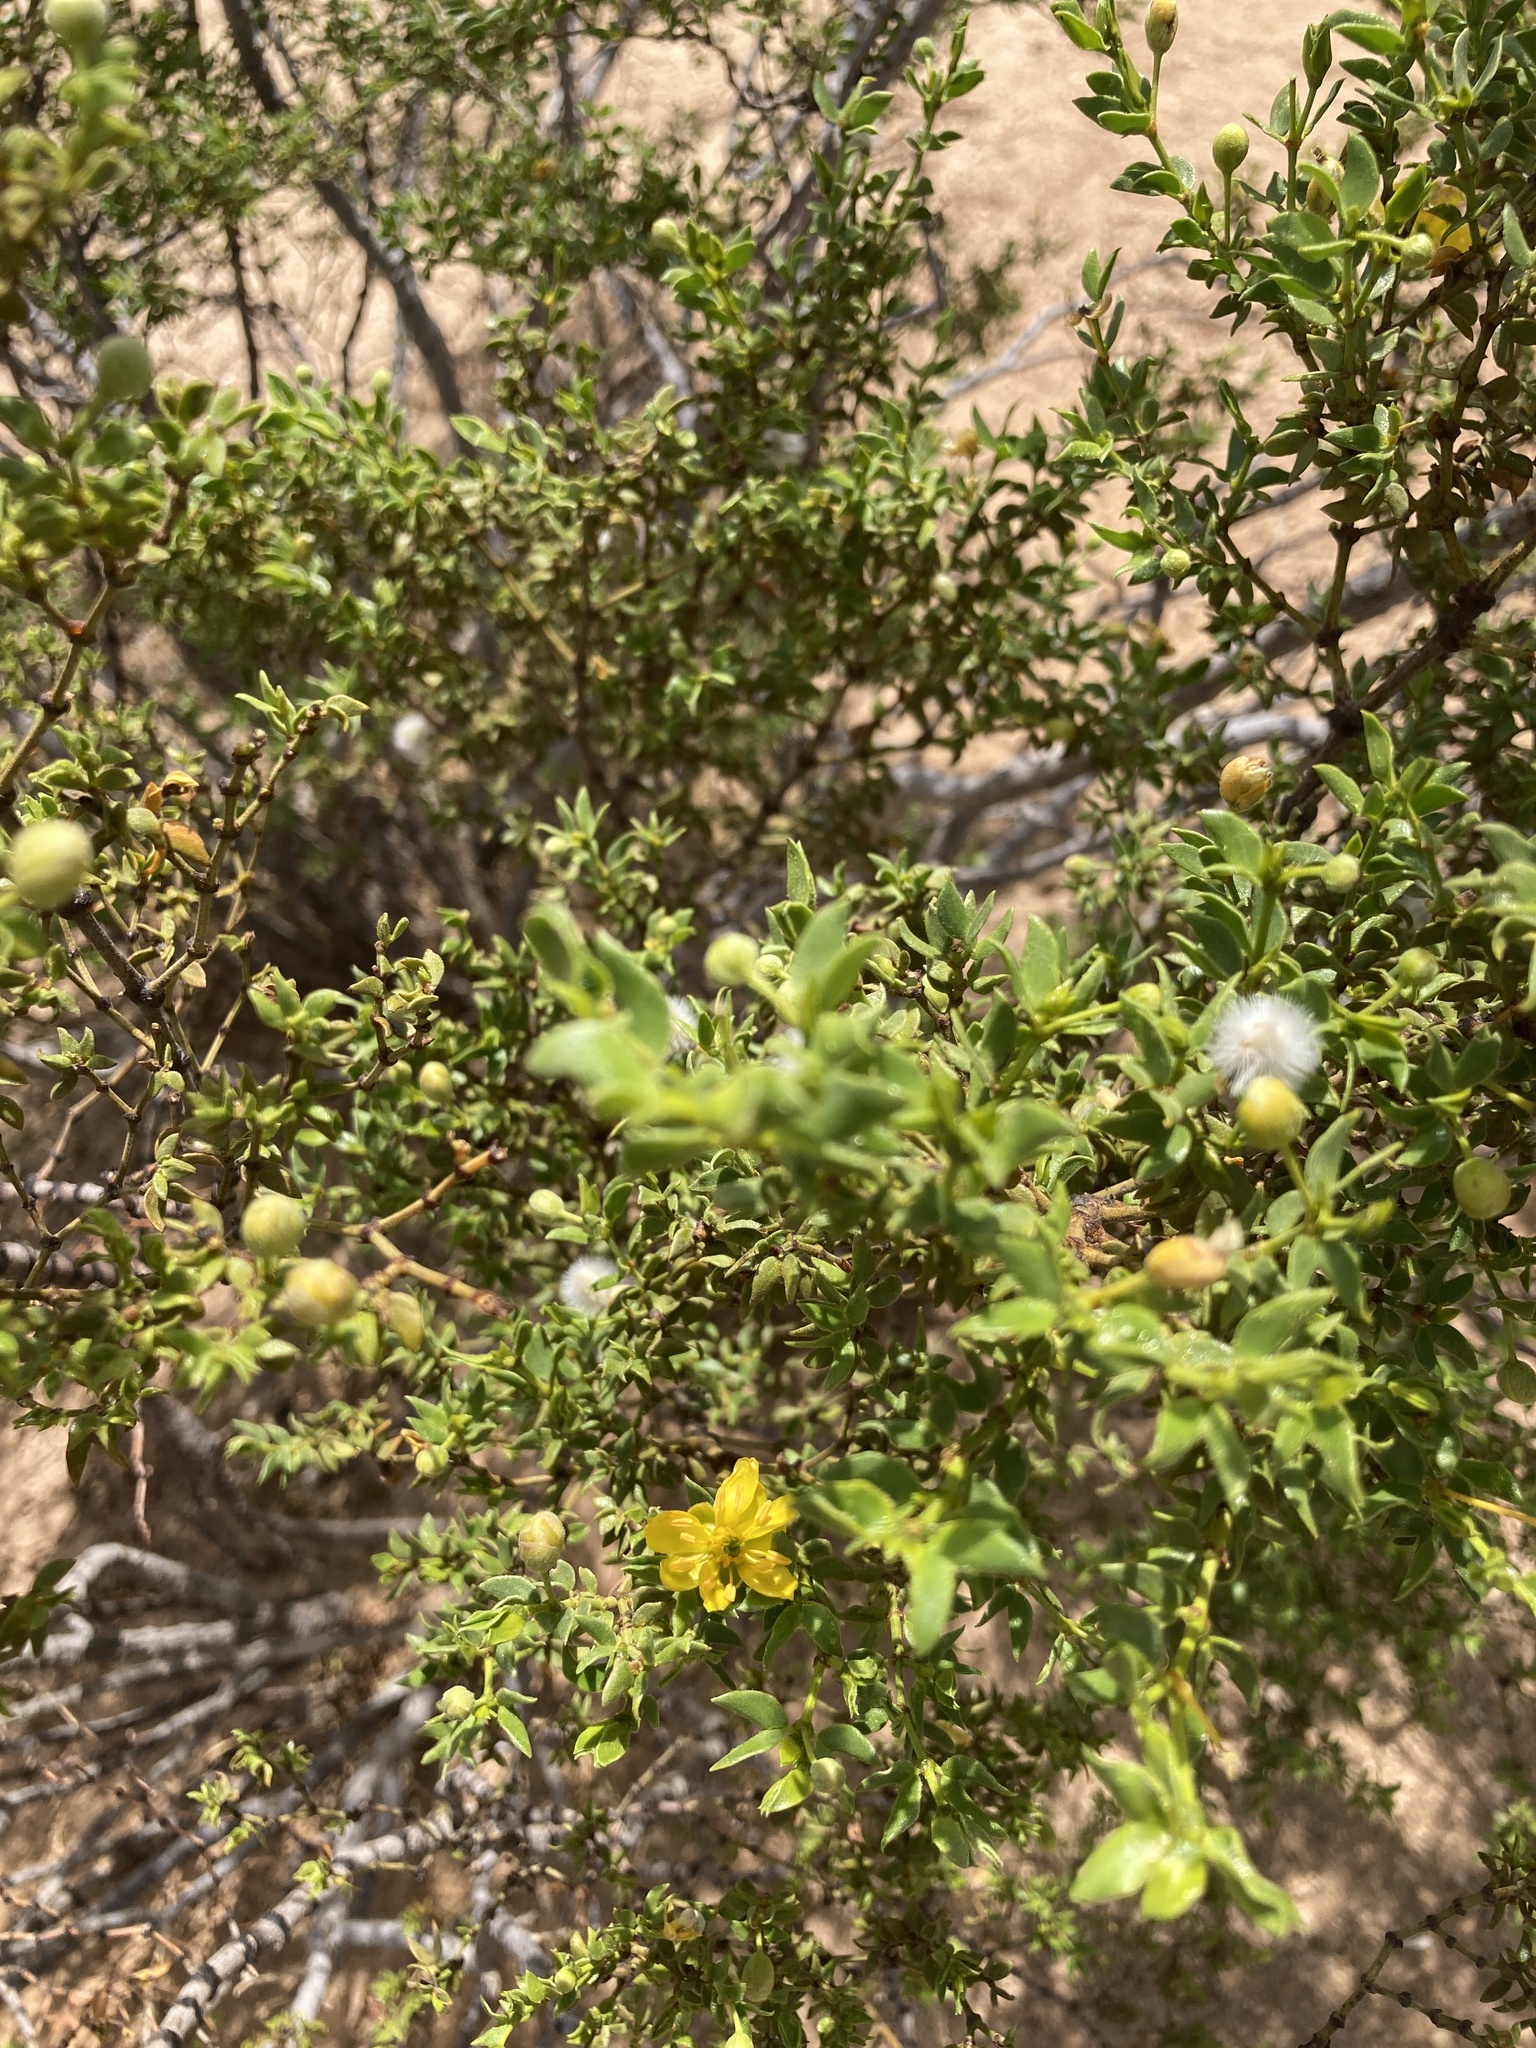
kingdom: Plantae
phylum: Tracheophyta
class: Magnoliopsida
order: Zygophyllales
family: Zygophyllaceae
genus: Larrea
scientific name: Larrea tridentata
